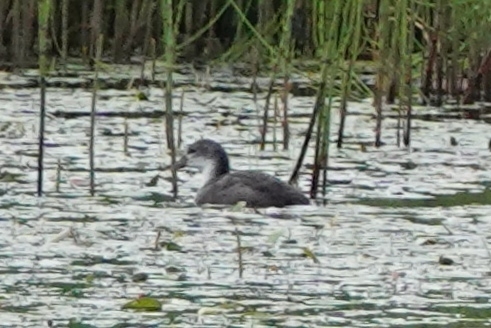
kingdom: Animalia
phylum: Chordata
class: Aves
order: Gruiformes
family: Rallidae
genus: Fulica
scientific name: Fulica atra
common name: Eurasian coot
